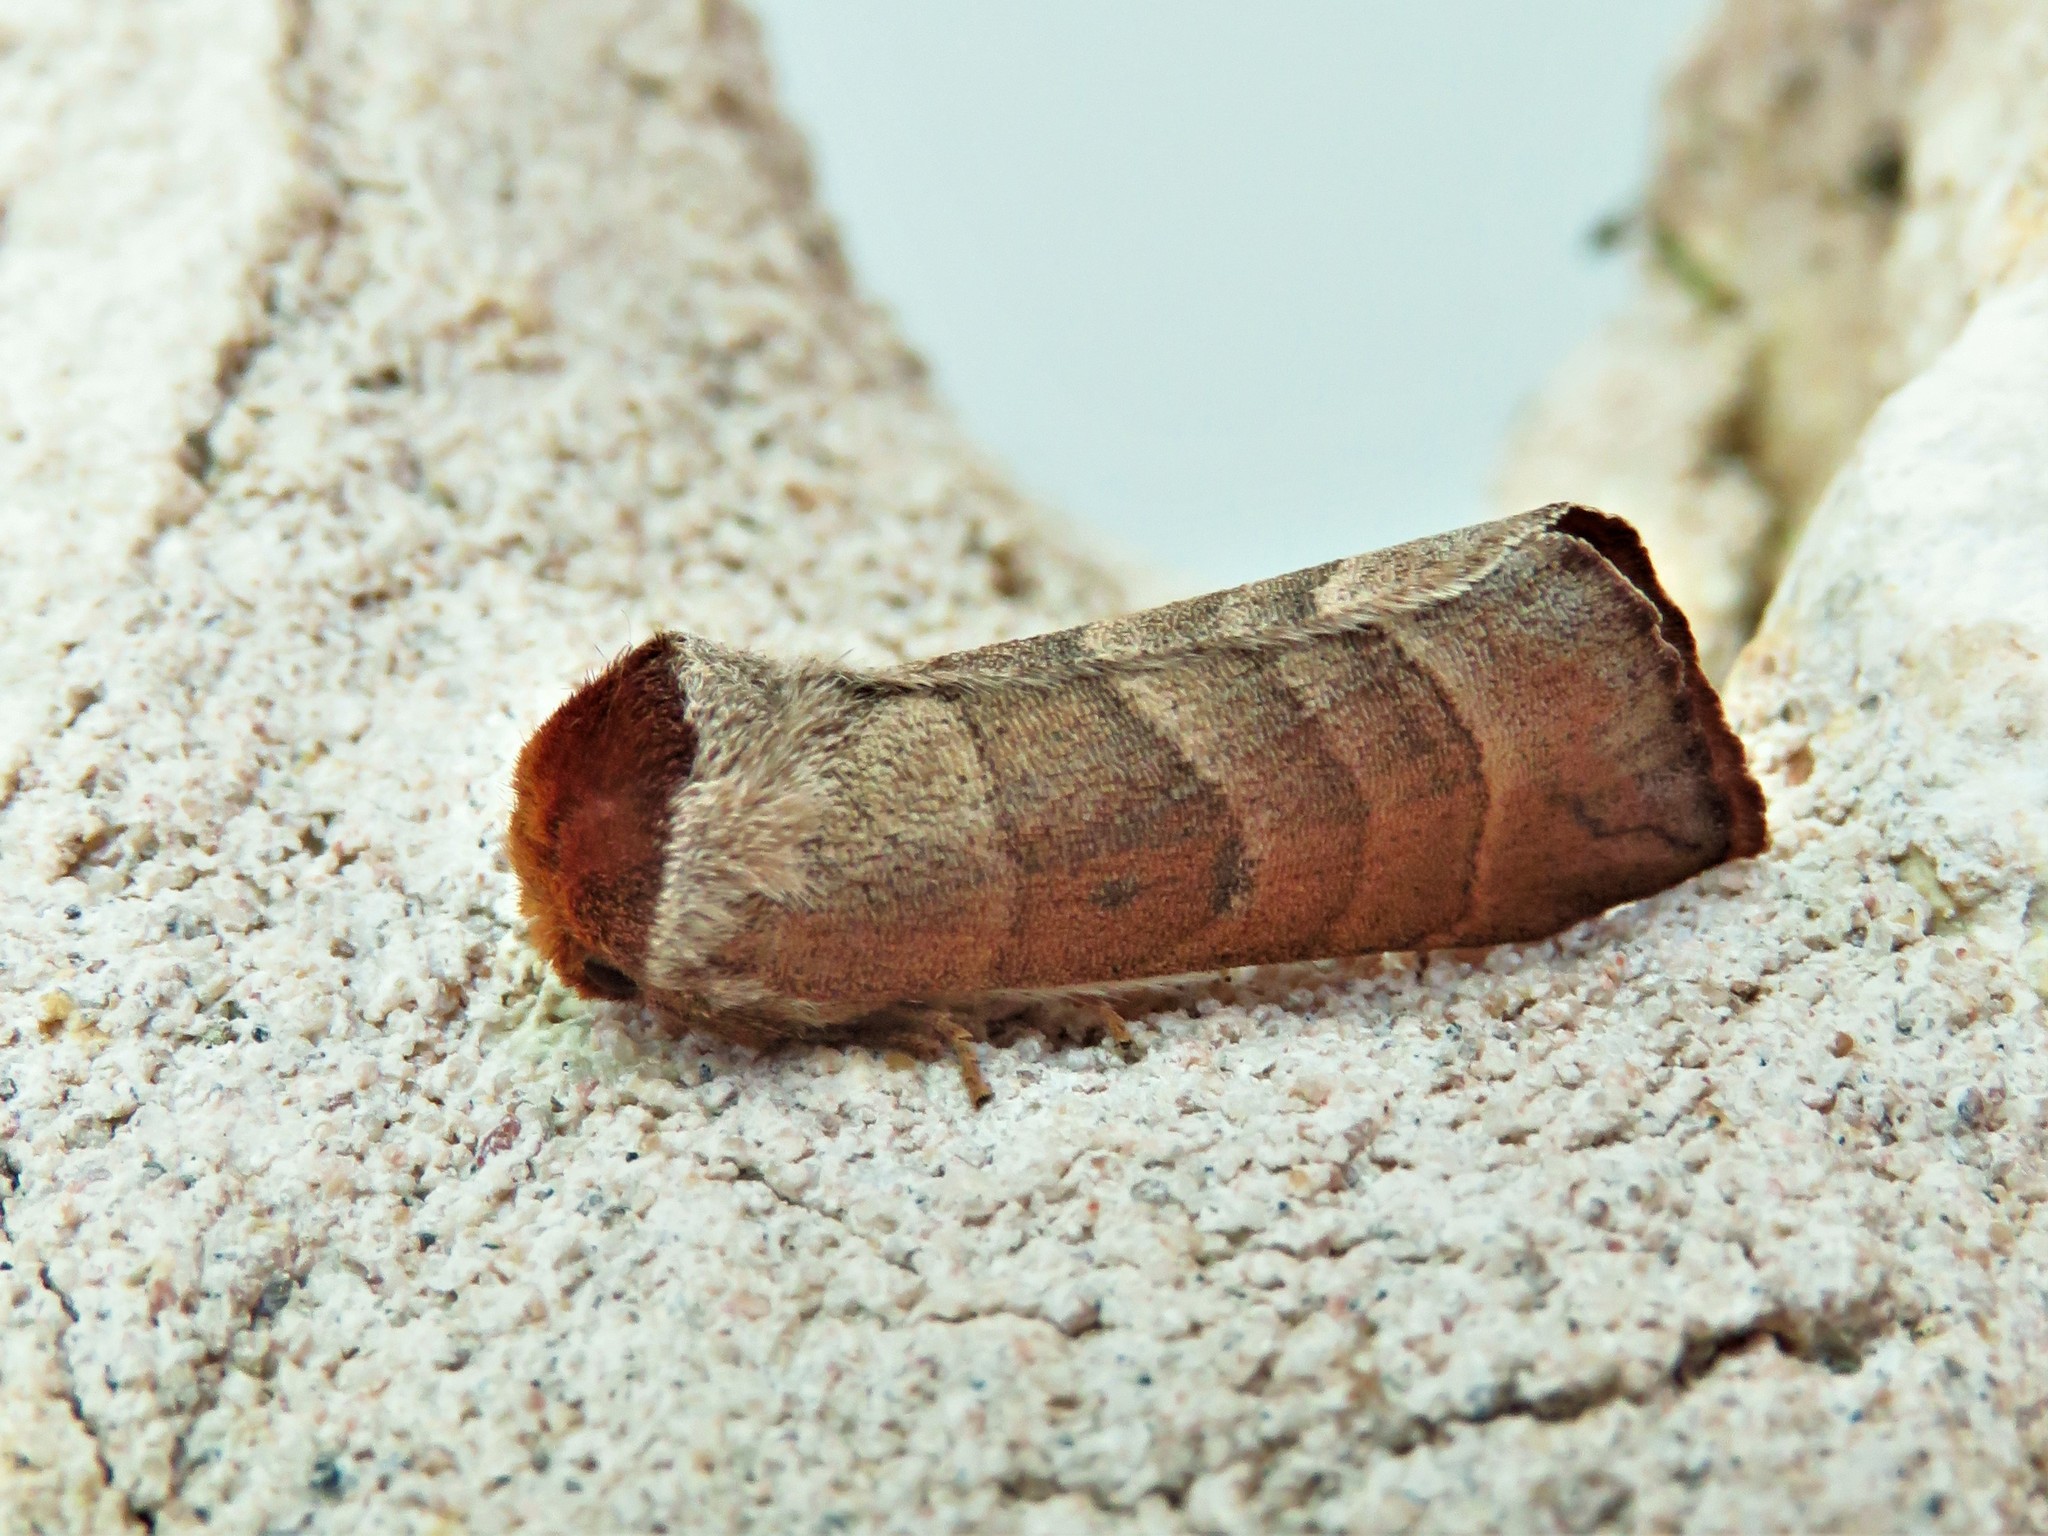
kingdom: Animalia
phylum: Arthropoda
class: Insecta
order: Lepidoptera
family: Notodontidae
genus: Datana
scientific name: Datana integerrima
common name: Walnut caterpillar
